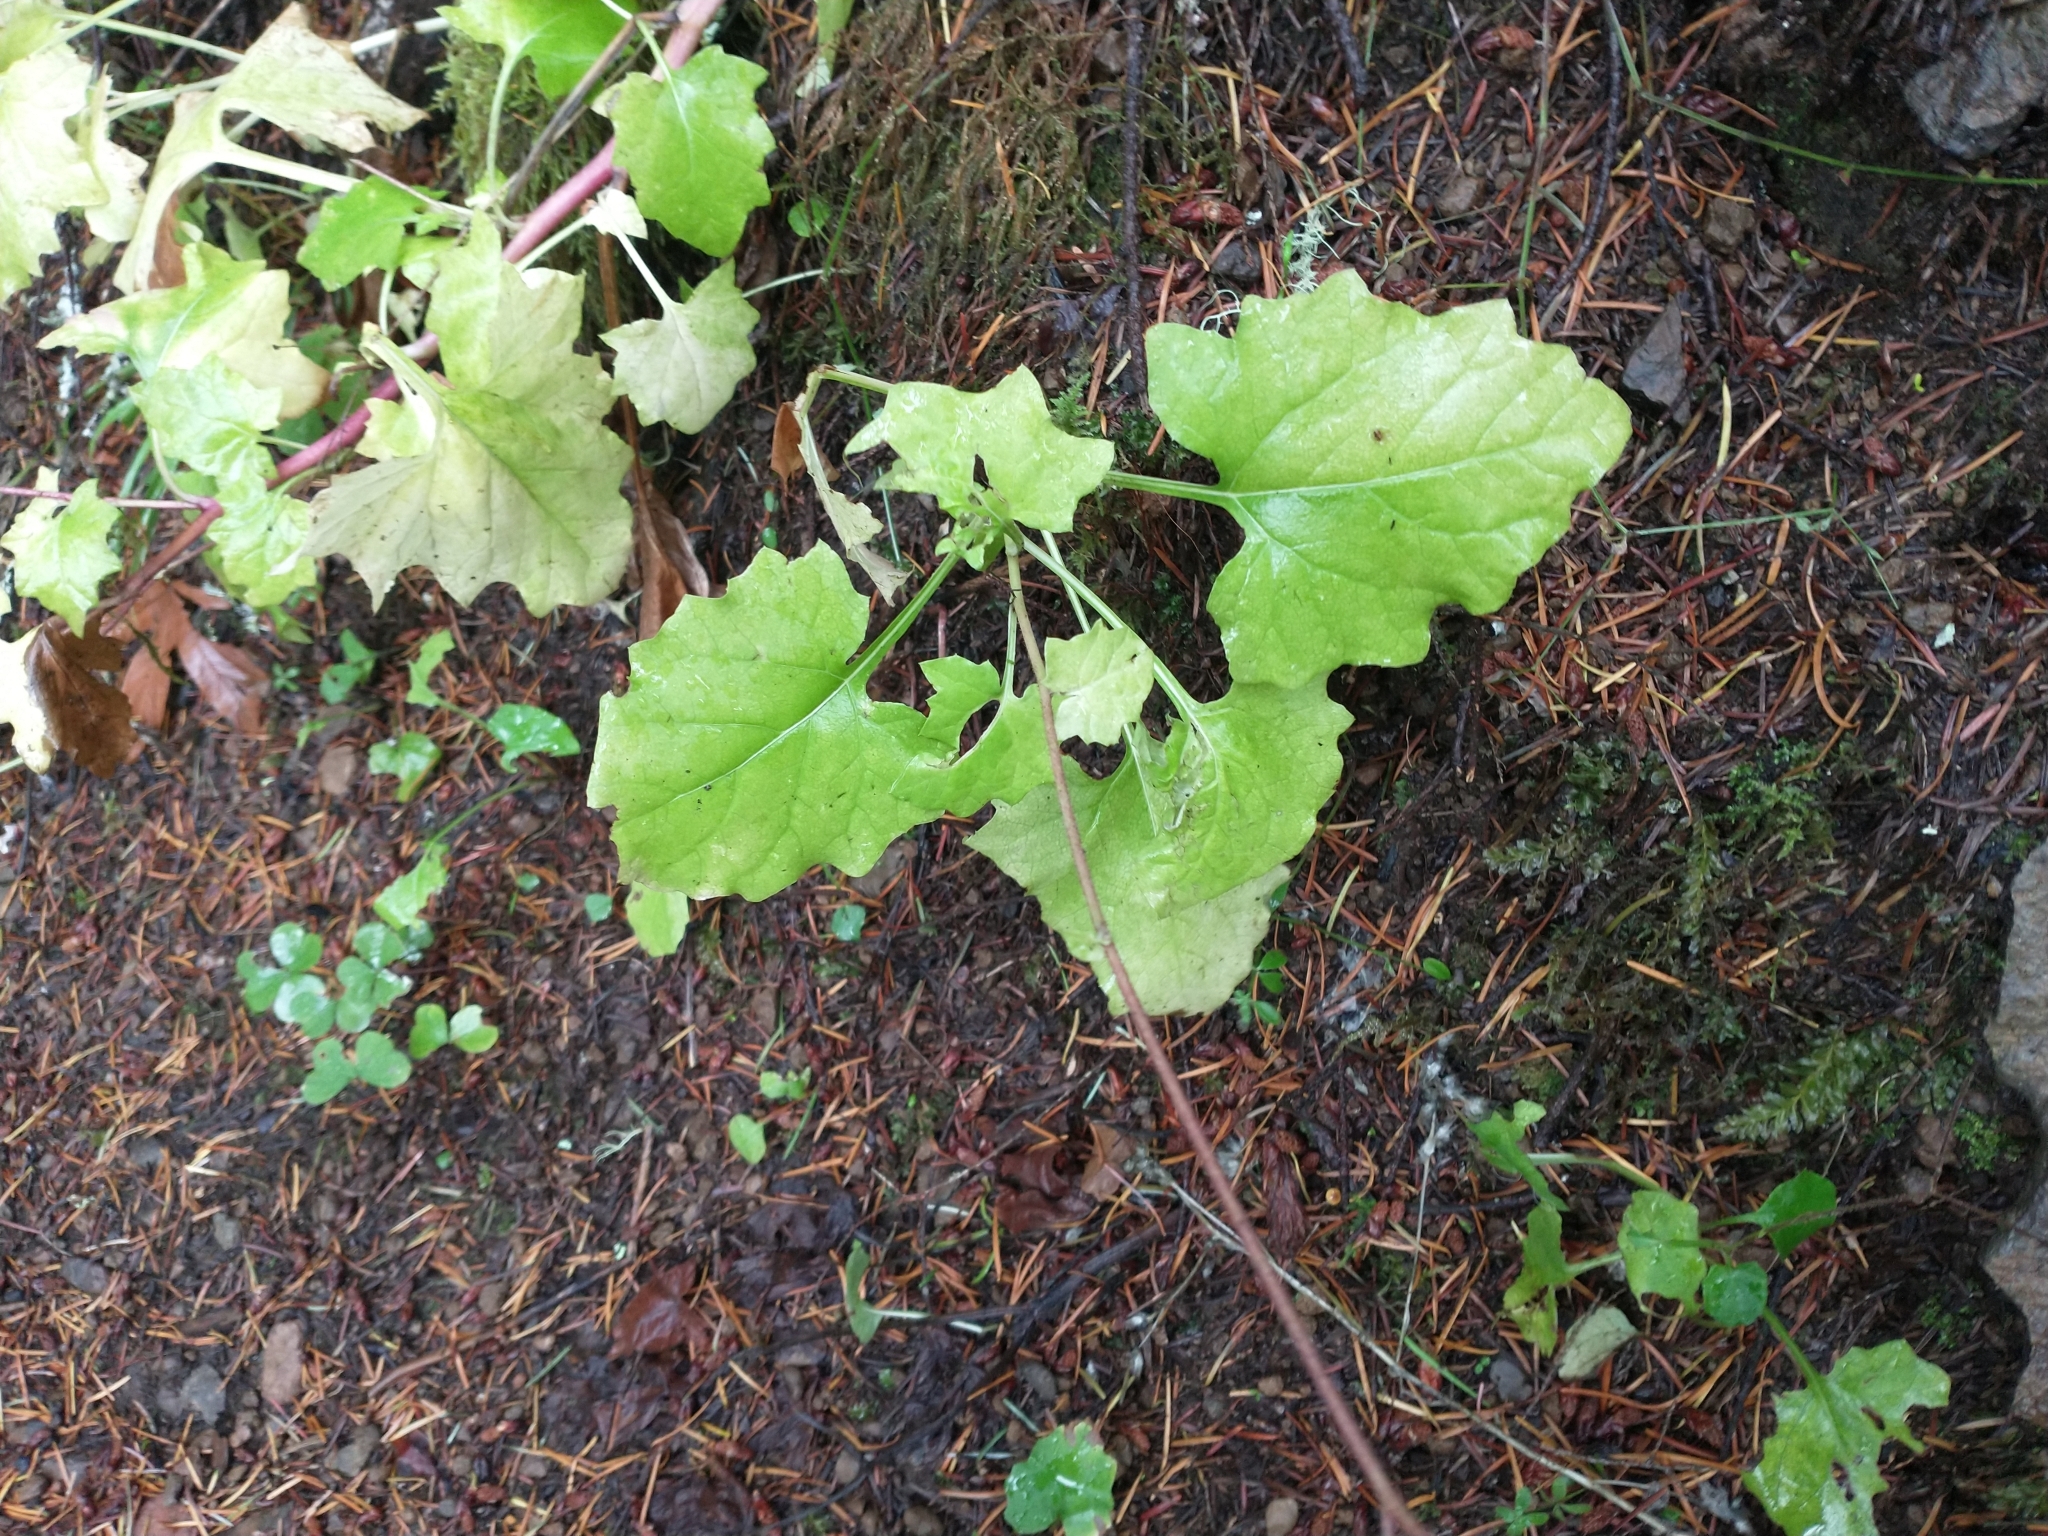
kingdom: Plantae
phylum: Tracheophyta
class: Magnoliopsida
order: Asterales
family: Asteraceae
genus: Adenocaulon
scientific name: Adenocaulon bicolor
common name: Trailplant
